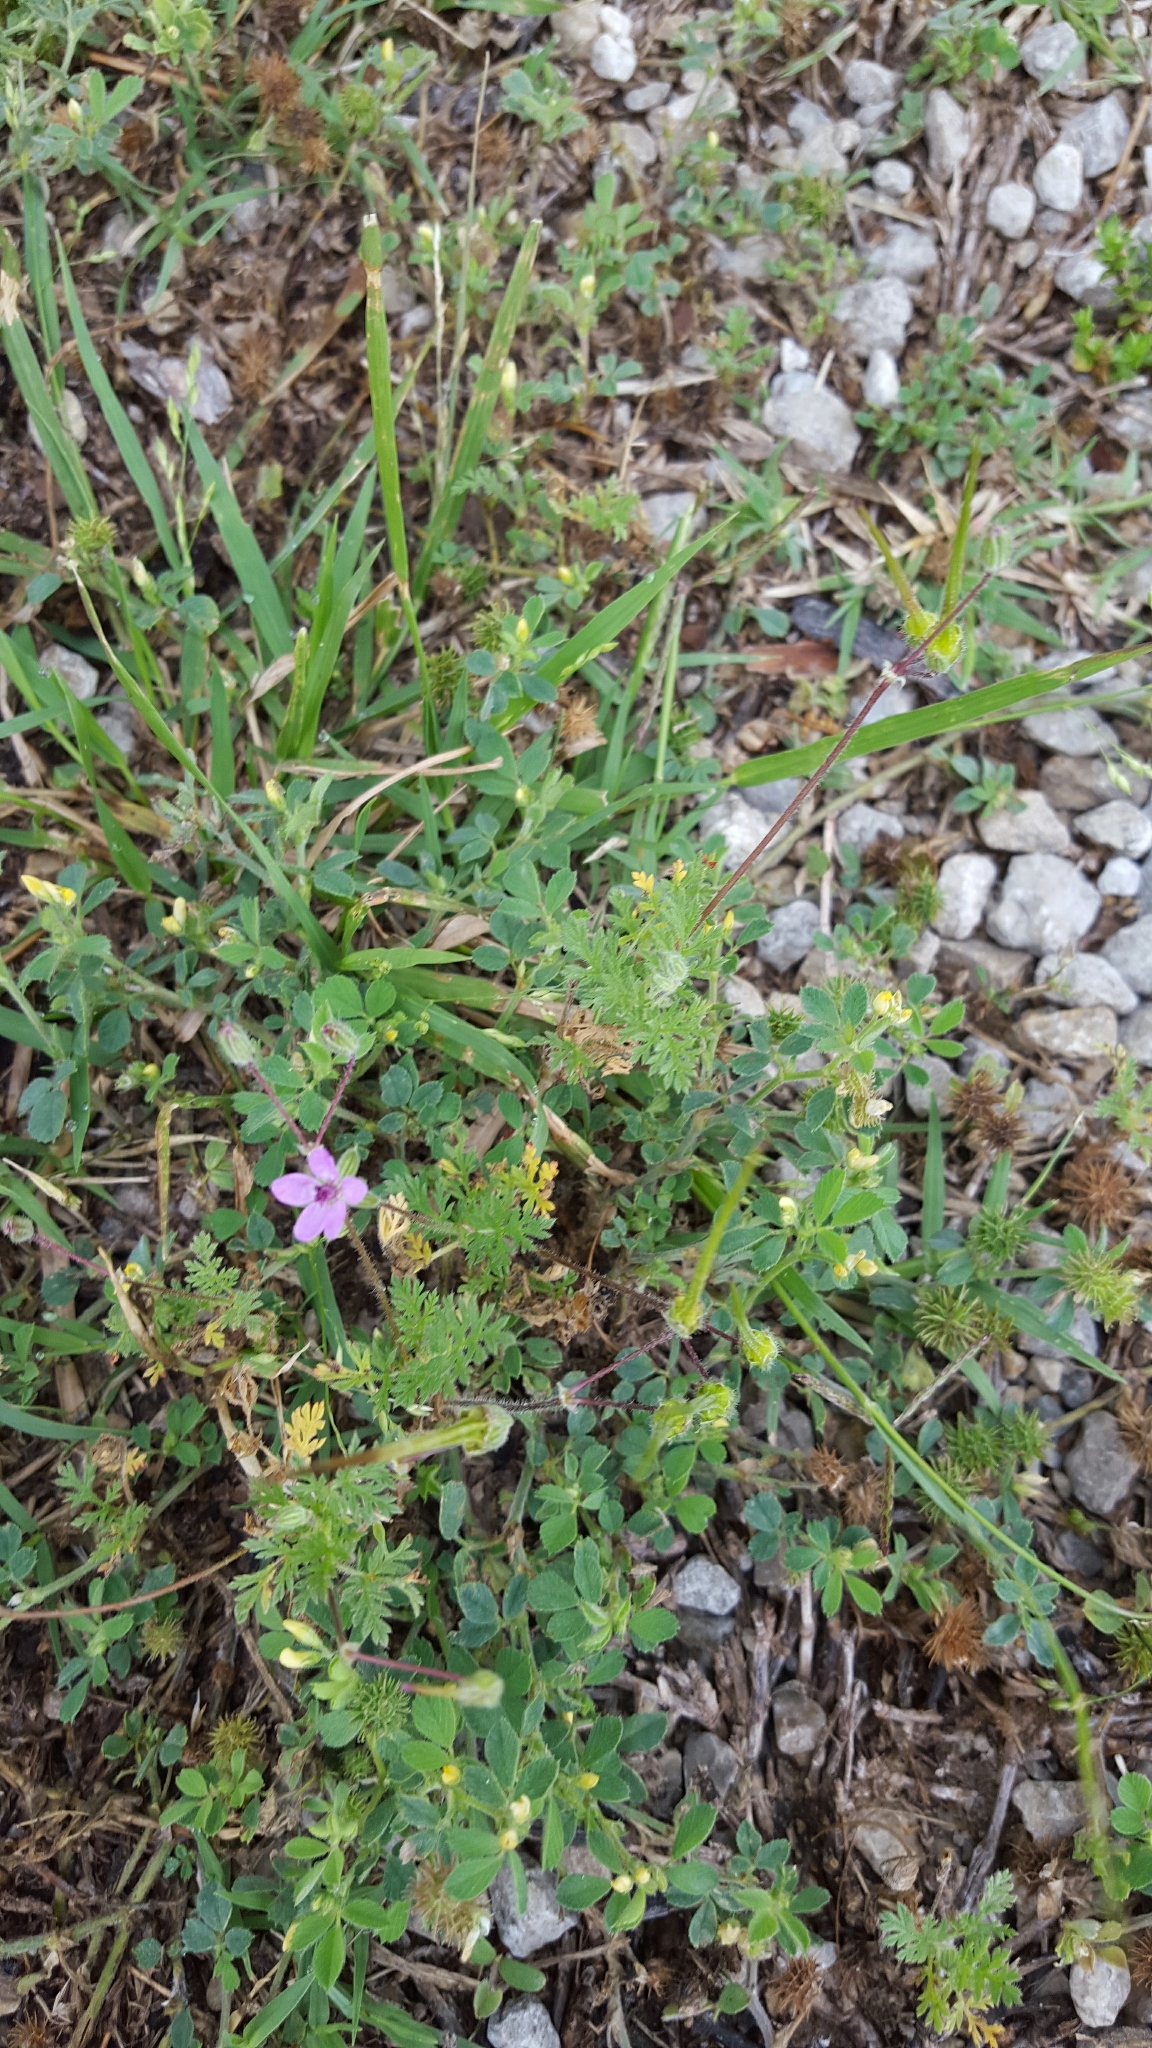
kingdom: Plantae
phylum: Tracheophyta
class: Magnoliopsida
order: Geraniales
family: Geraniaceae
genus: Erodium
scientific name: Erodium cicutarium
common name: Common stork's-bill
